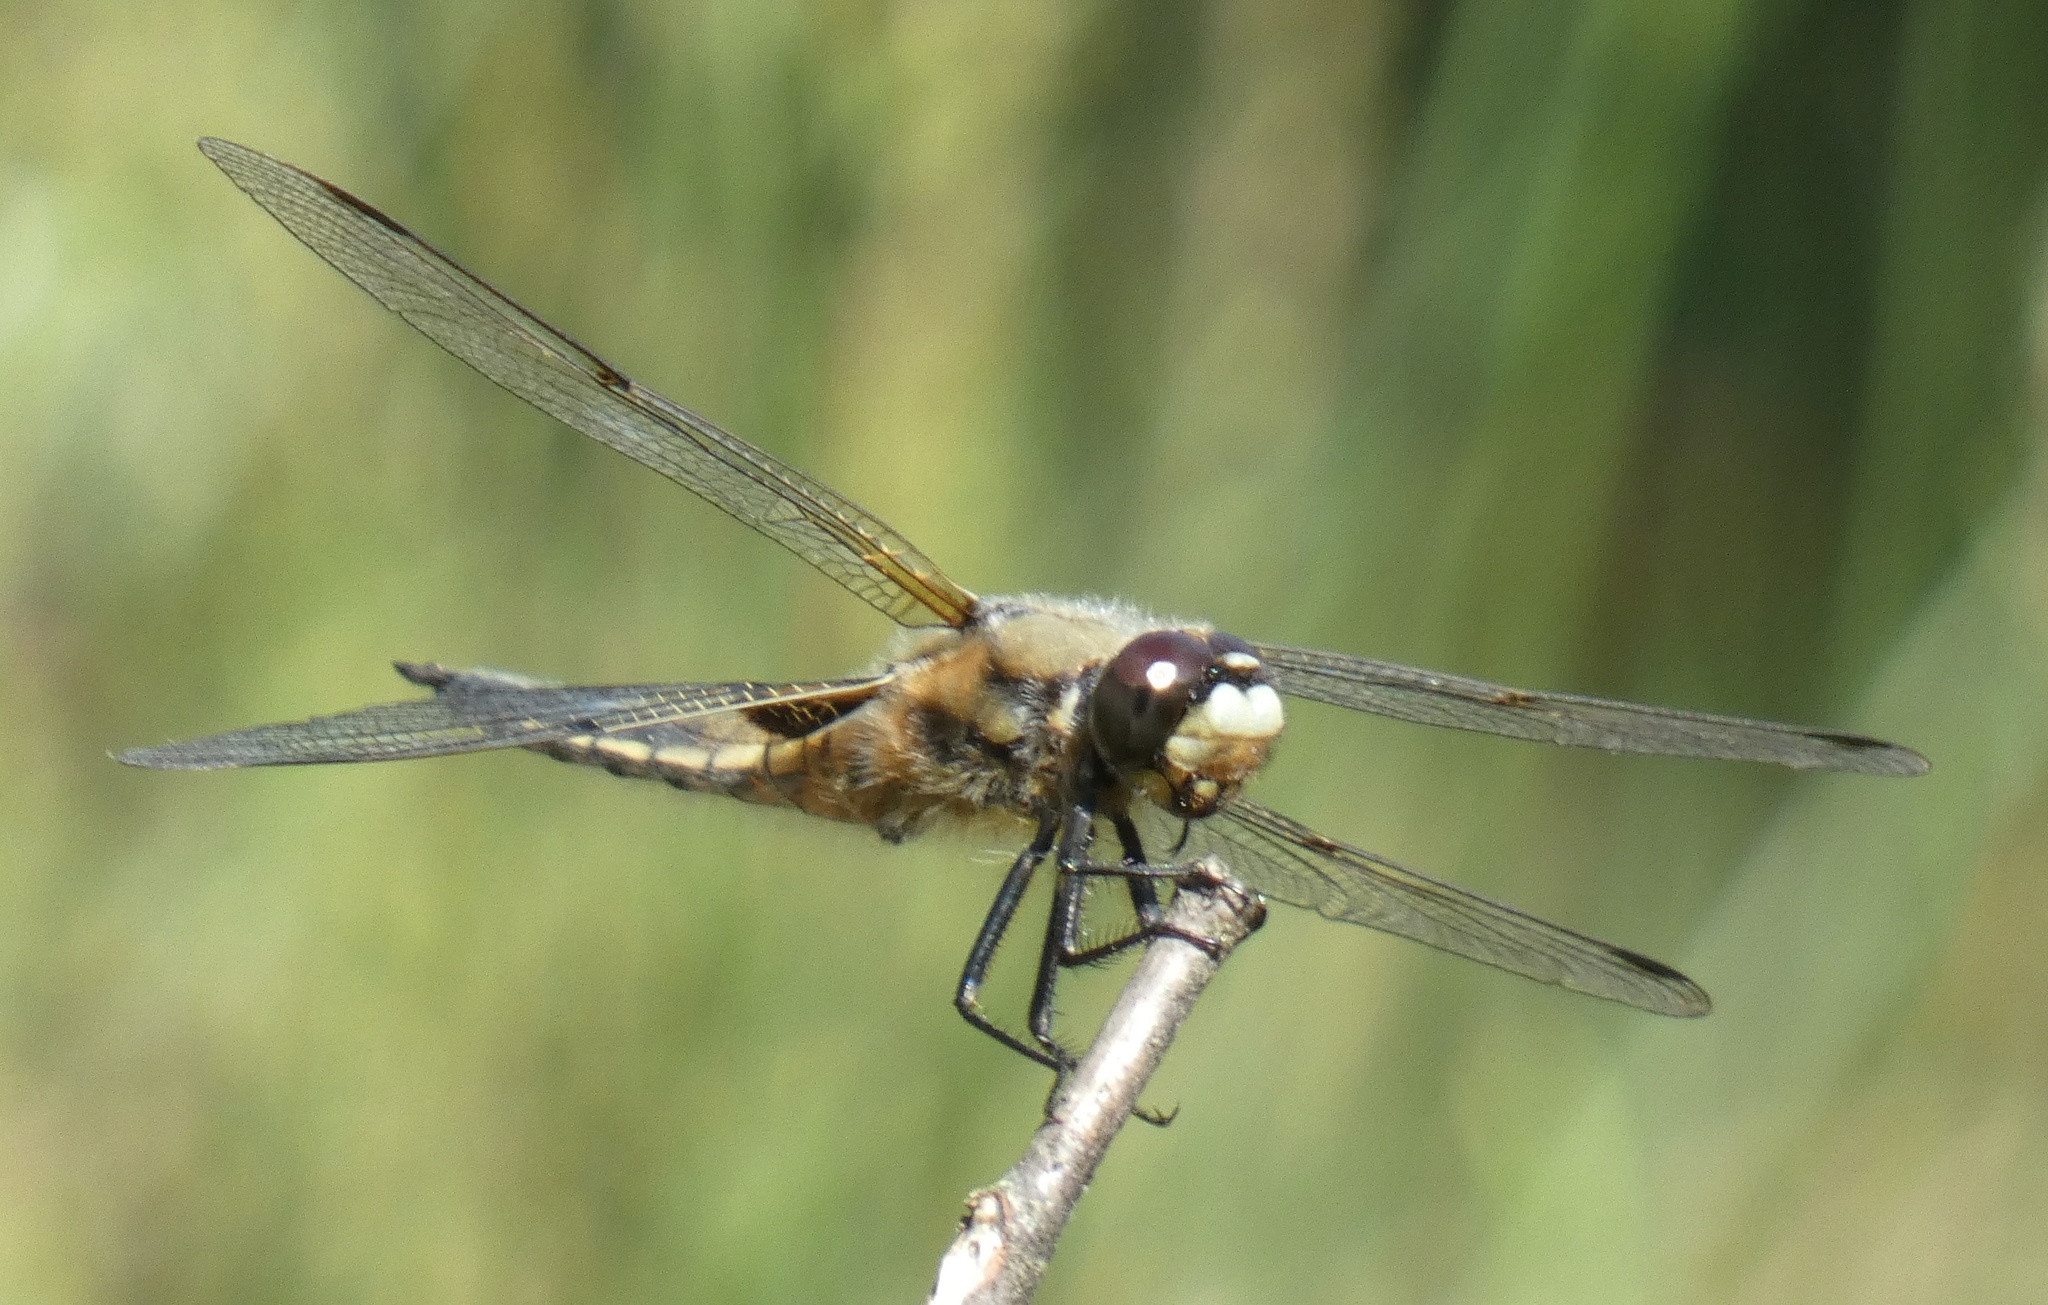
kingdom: Animalia
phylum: Arthropoda
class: Insecta
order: Odonata
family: Libellulidae
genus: Libellula
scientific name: Libellula quadrimaculata
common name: Four-spotted chaser
